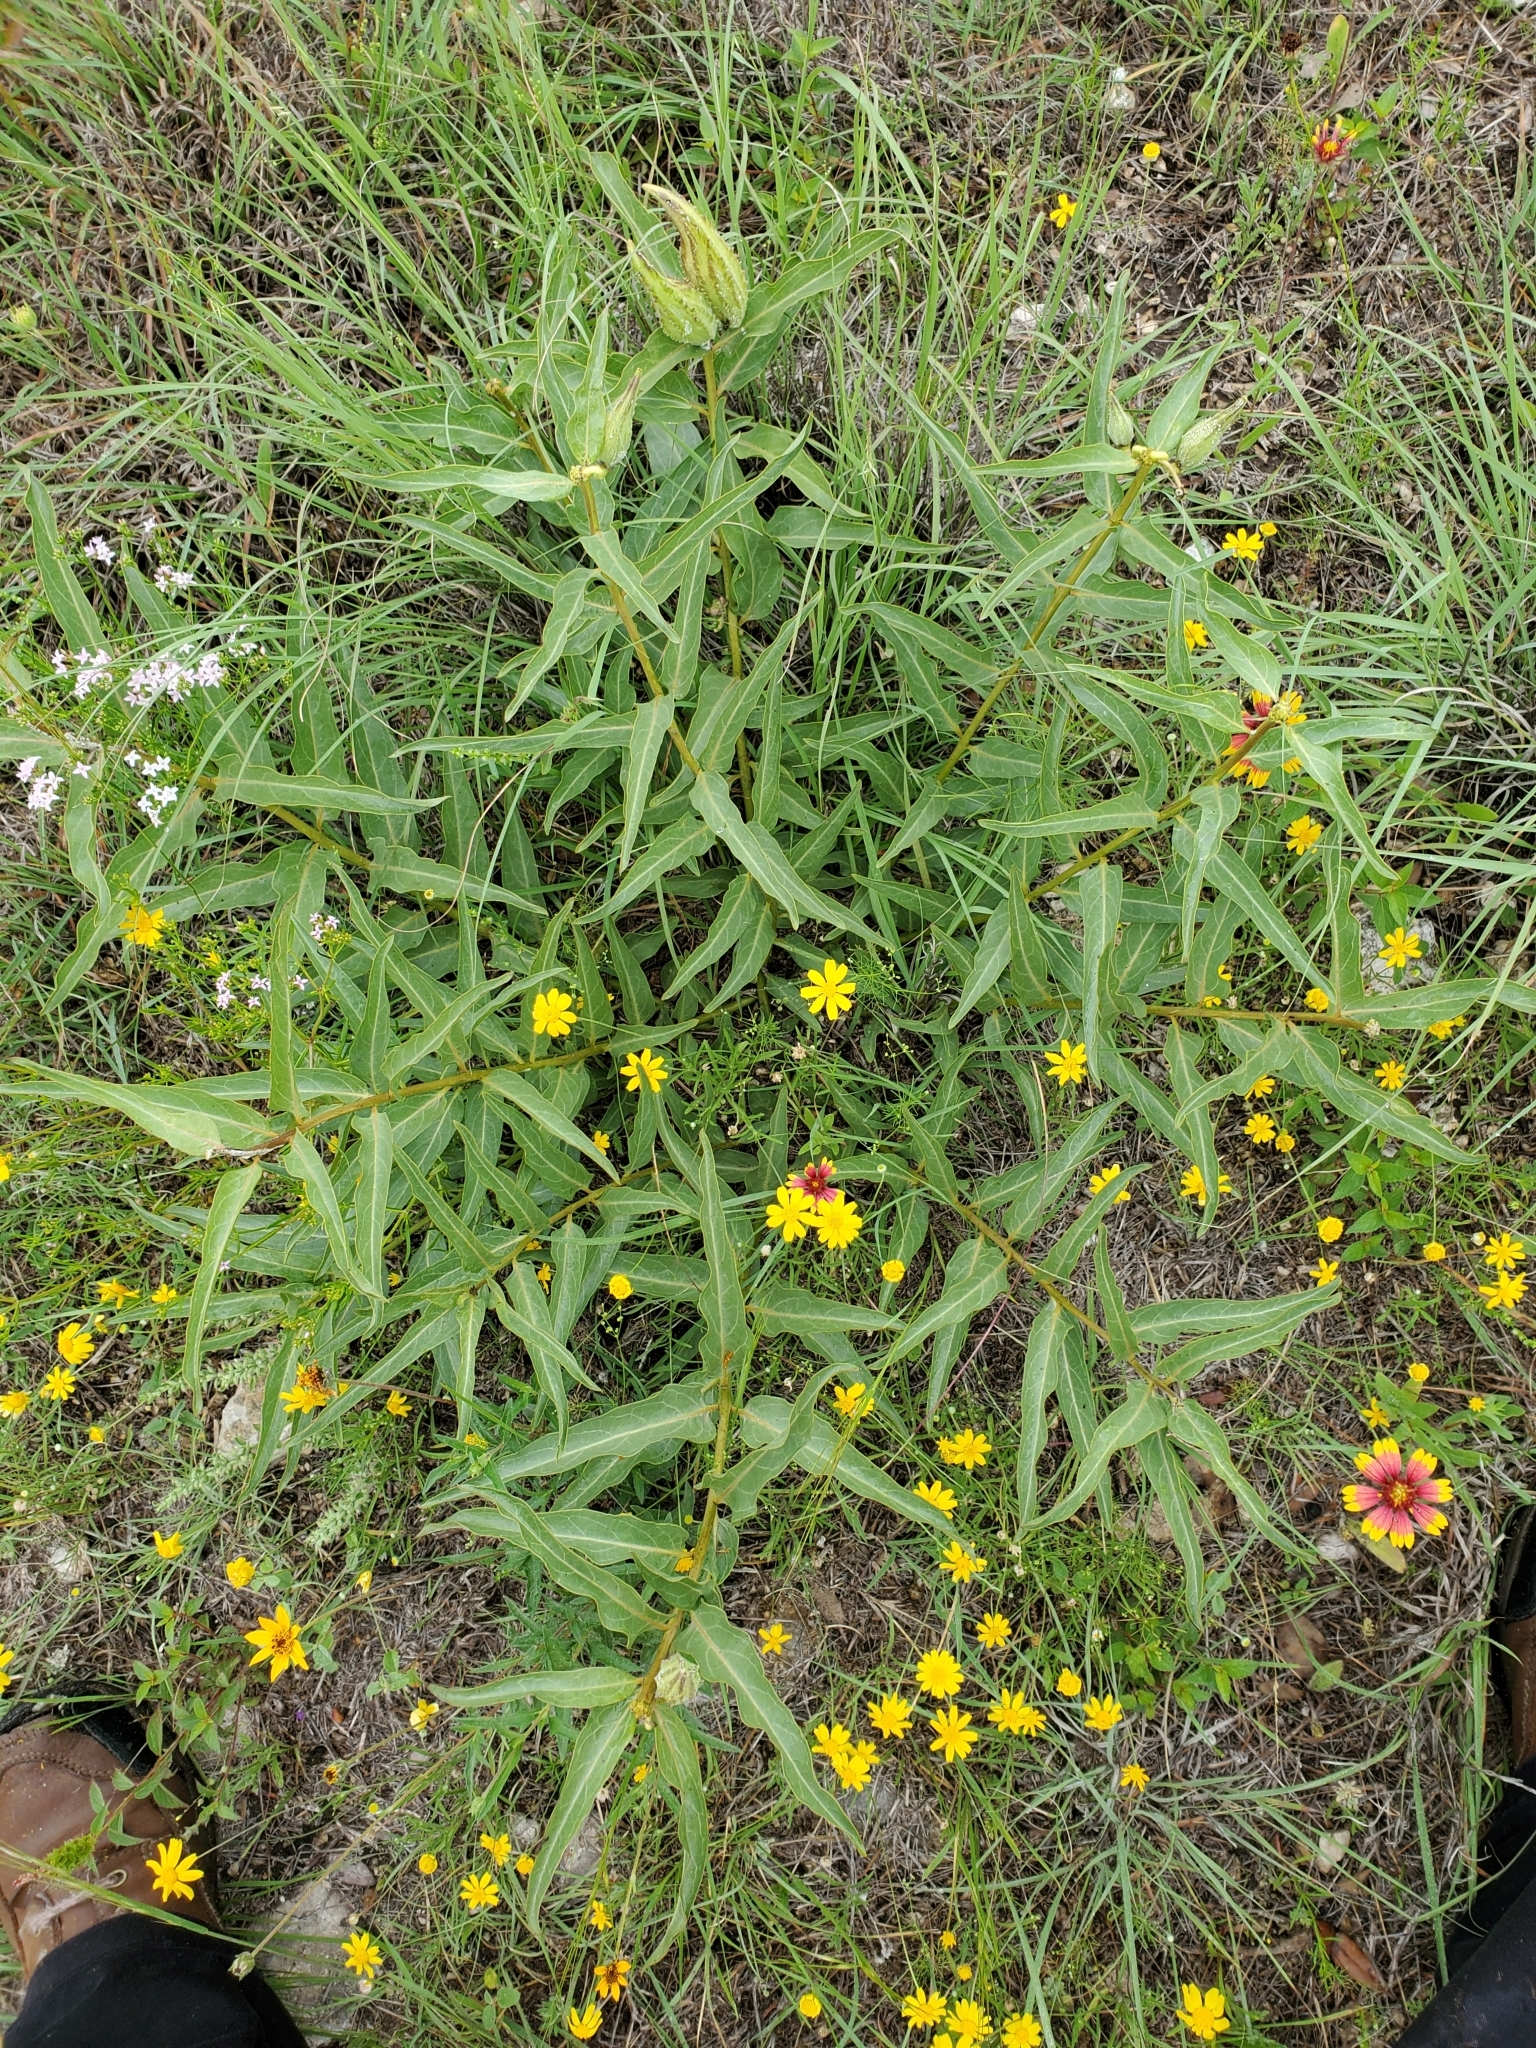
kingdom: Plantae
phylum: Tracheophyta
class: Magnoliopsida
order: Gentianales
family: Apocynaceae
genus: Asclepias
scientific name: Asclepias asperula
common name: Antelope horns
